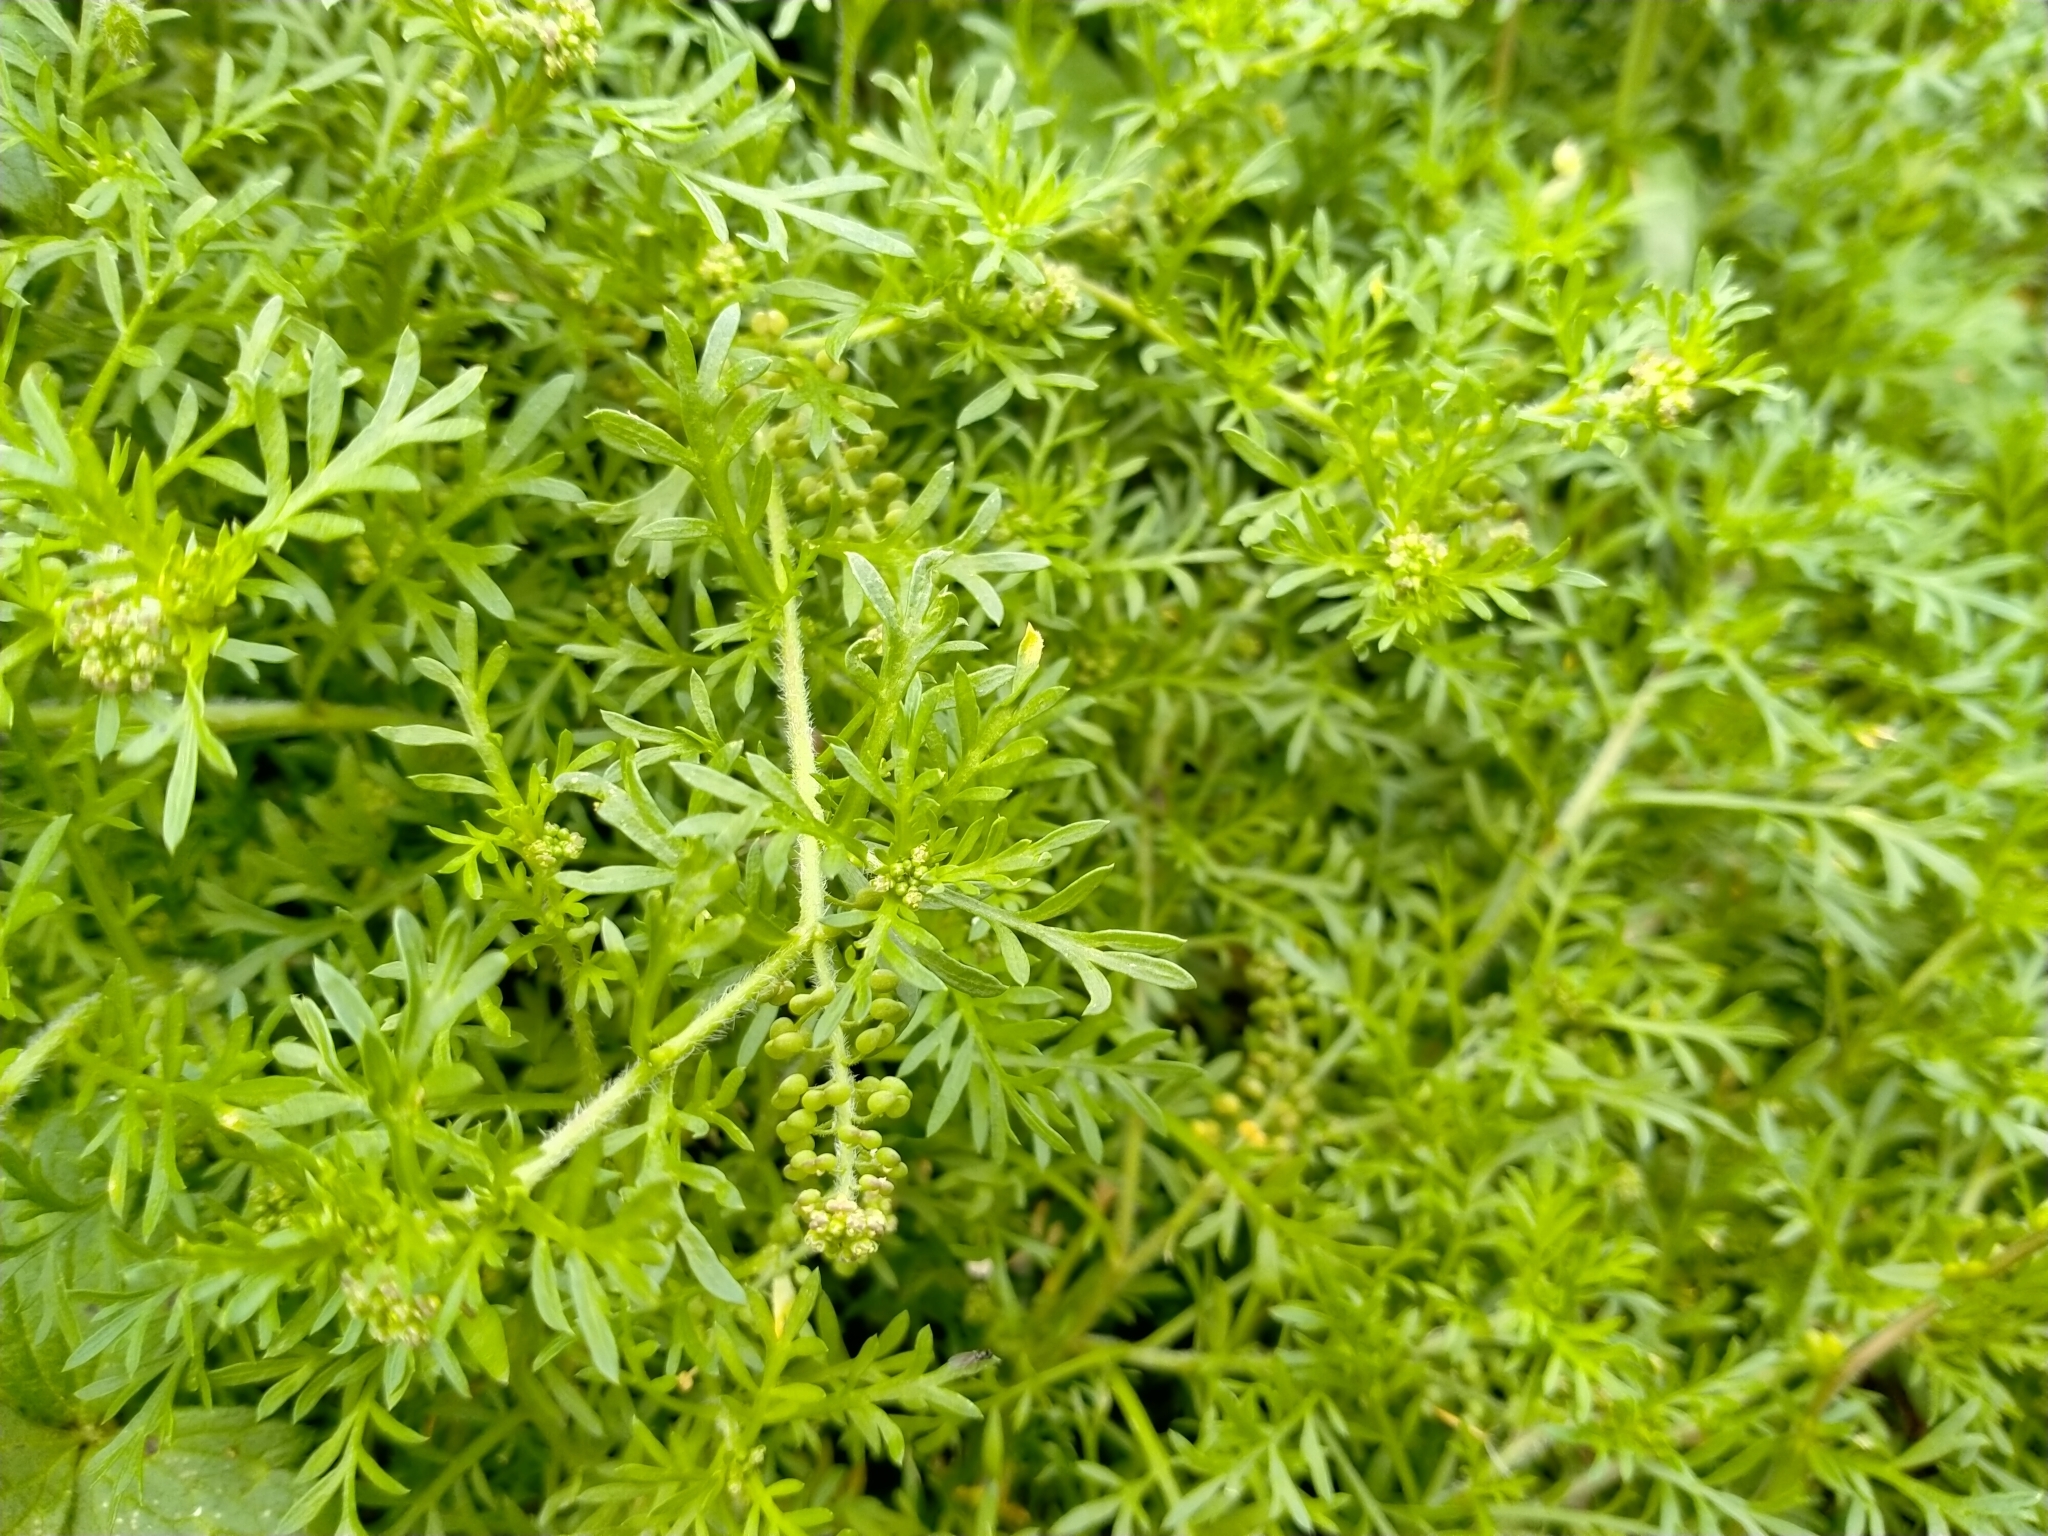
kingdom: Plantae
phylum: Tracheophyta
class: Magnoliopsida
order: Brassicales
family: Brassicaceae
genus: Lepidium
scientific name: Lepidium didymum
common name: Lesser swinecress
